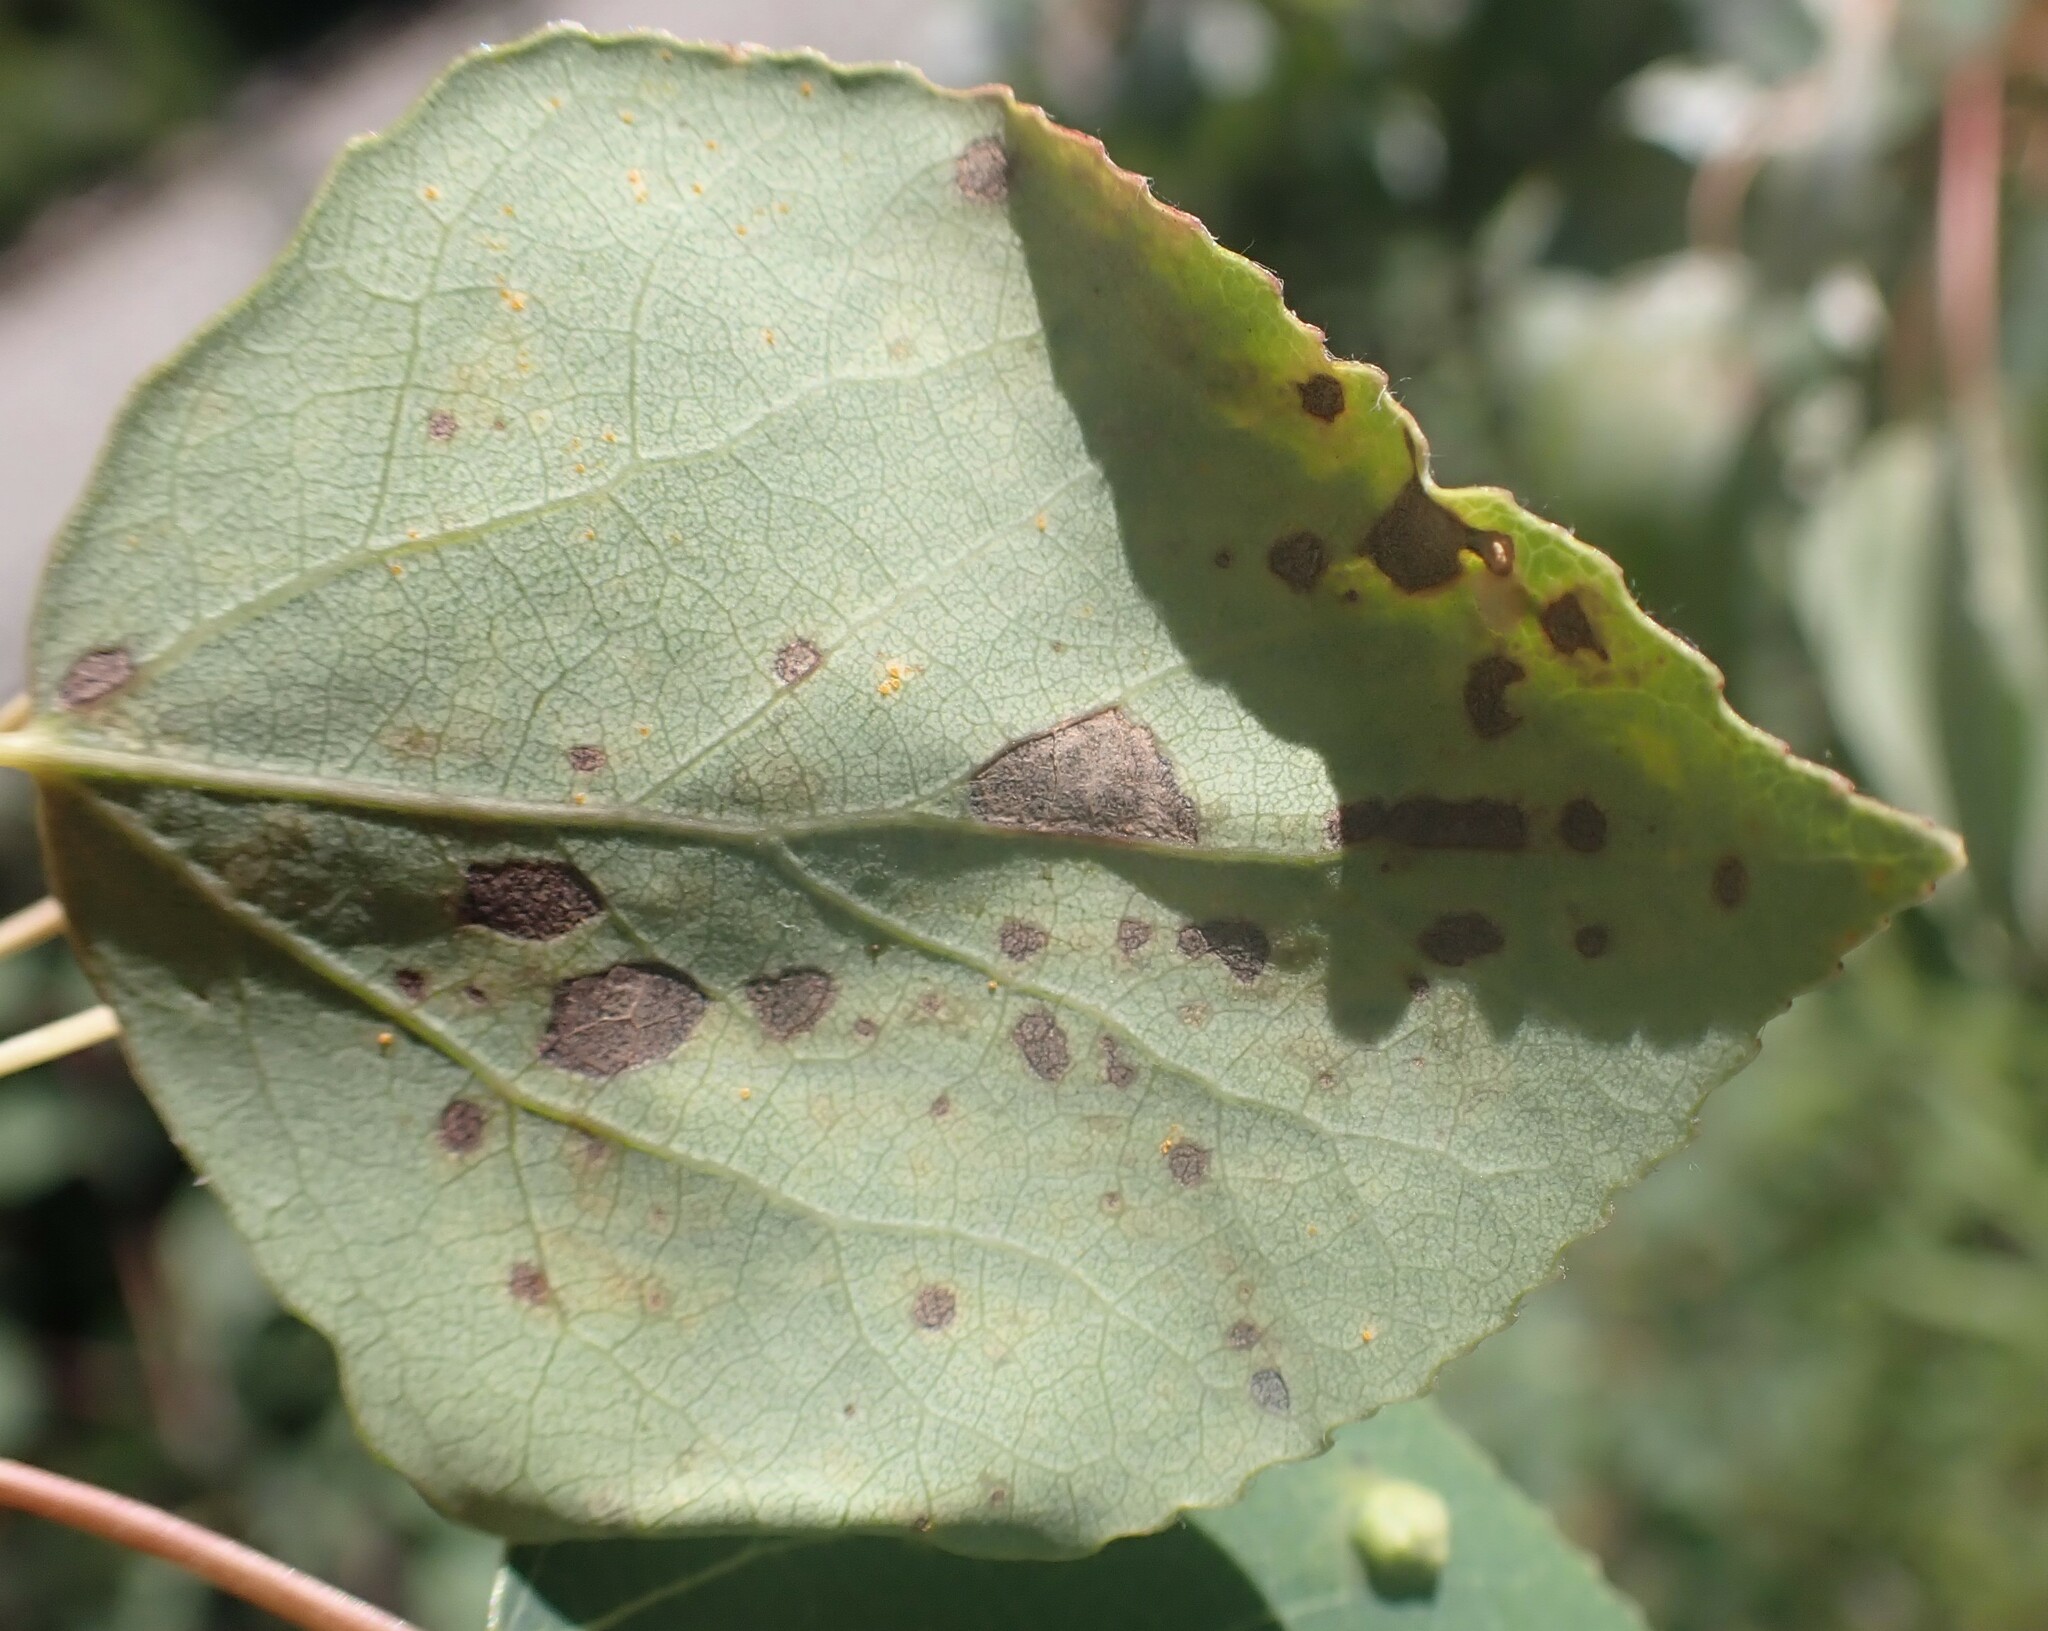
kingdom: Animalia
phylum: Arthropoda
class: Insecta
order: Lepidoptera
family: Gracillariidae
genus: Phyllocnistis
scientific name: Phyllocnistis populiella
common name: Aspen serpentine leafminer moth
